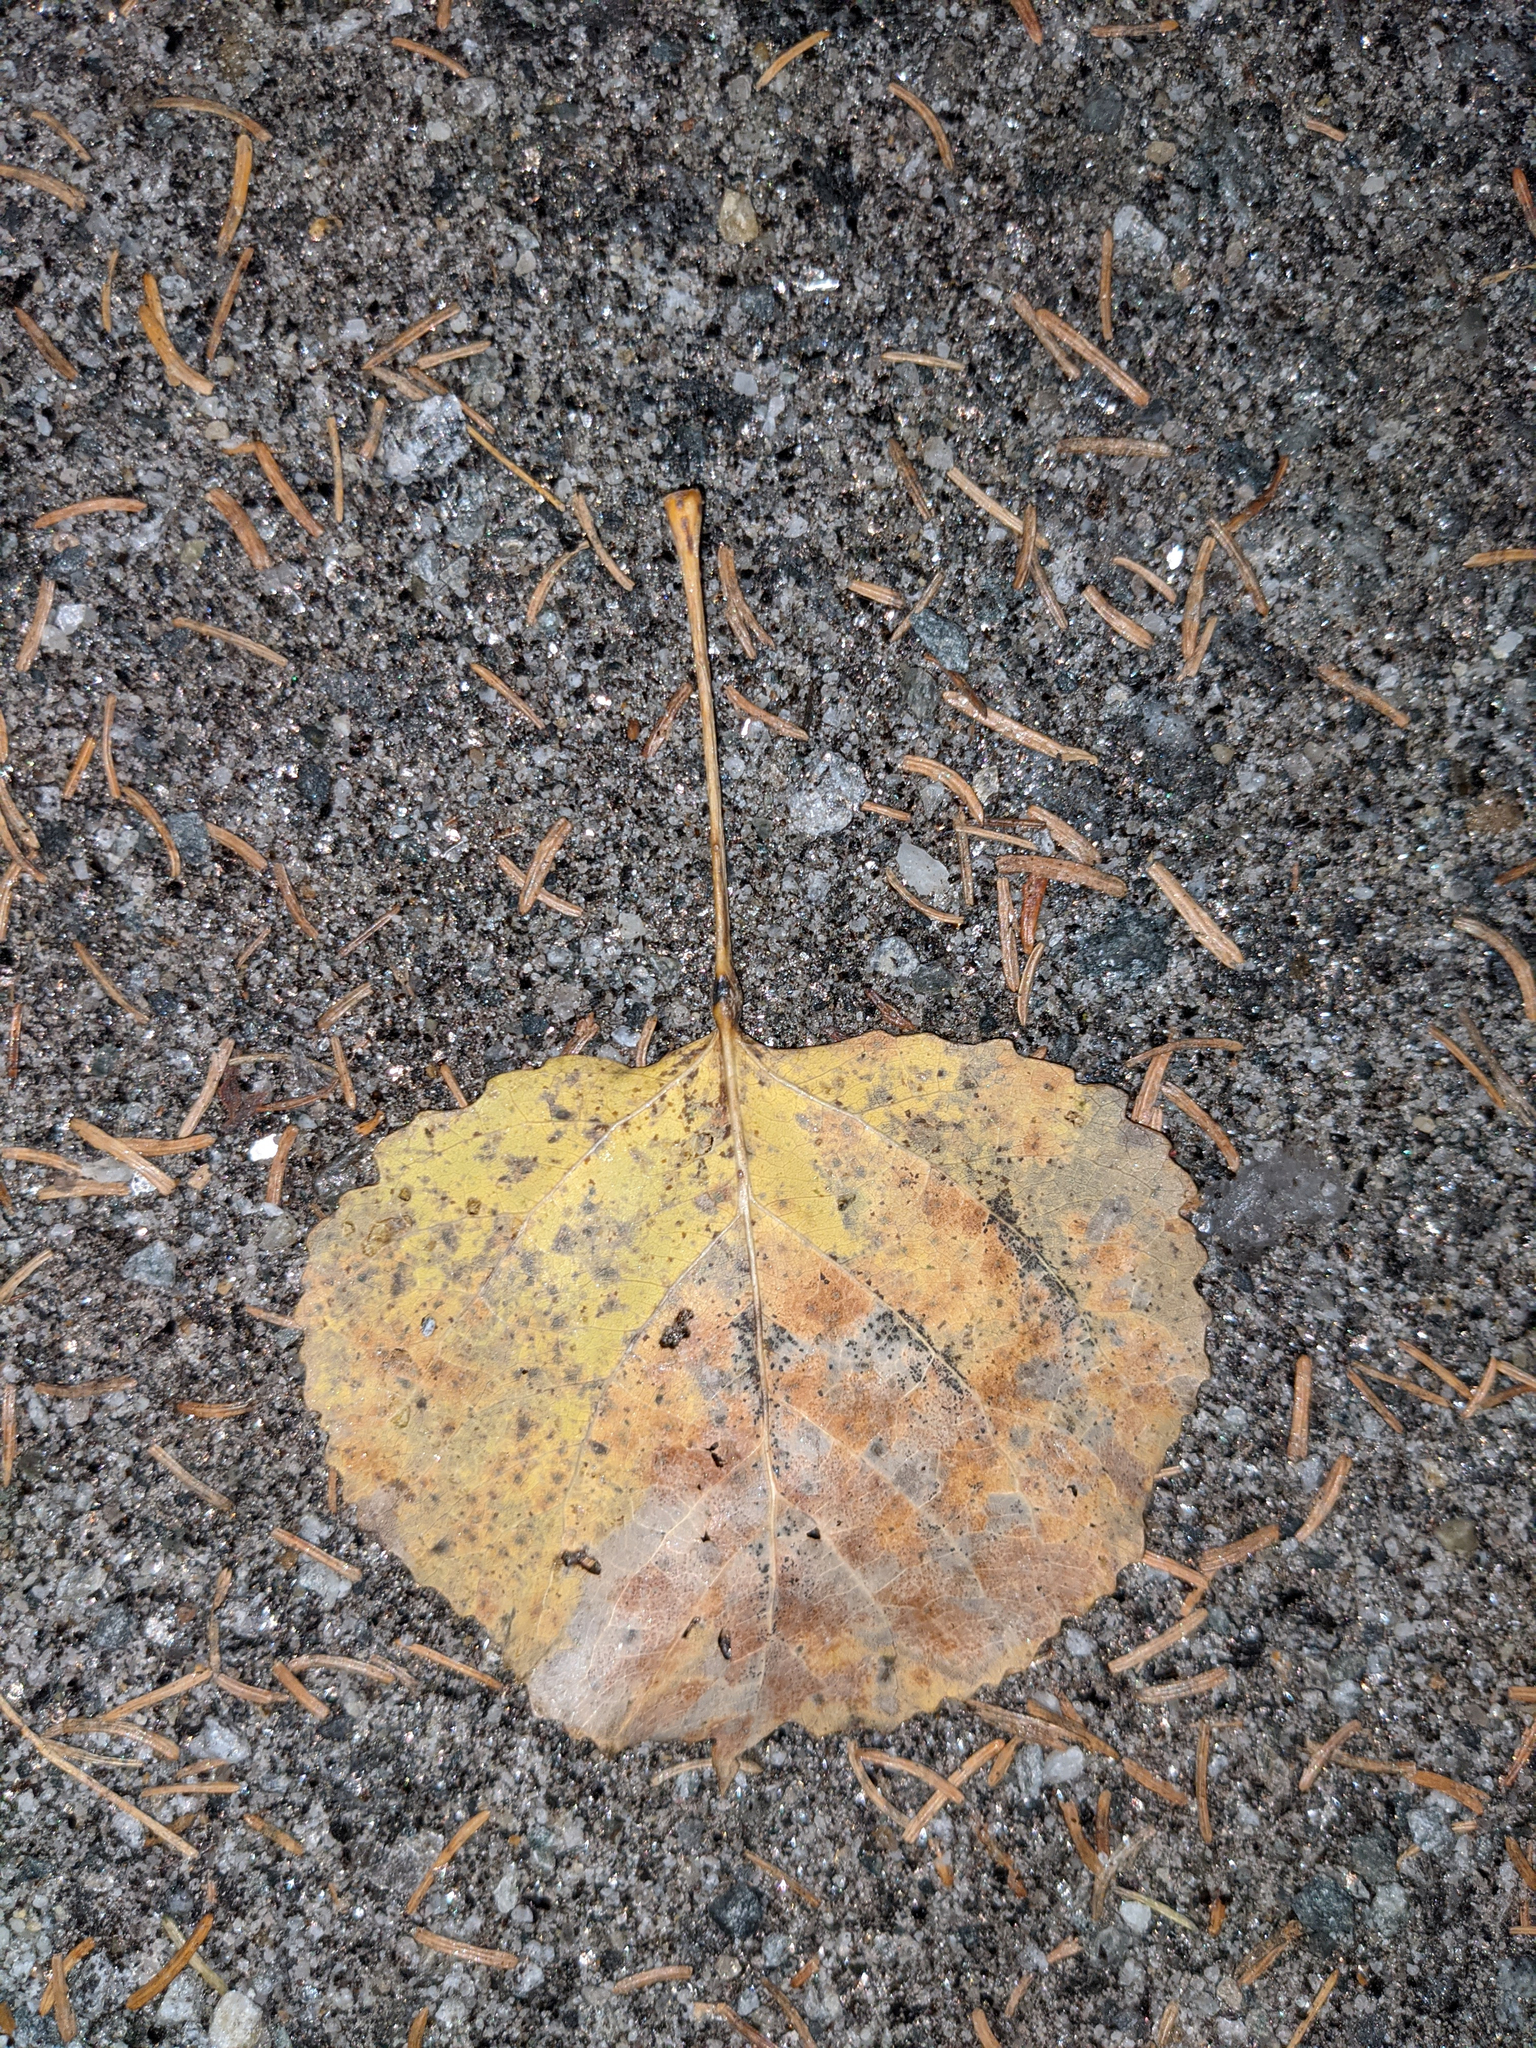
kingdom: Plantae
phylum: Tracheophyta
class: Magnoliopsida
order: Malpighiales
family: Salicaceae
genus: Populus
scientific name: Populus tremuloides
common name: Quaking aspen
